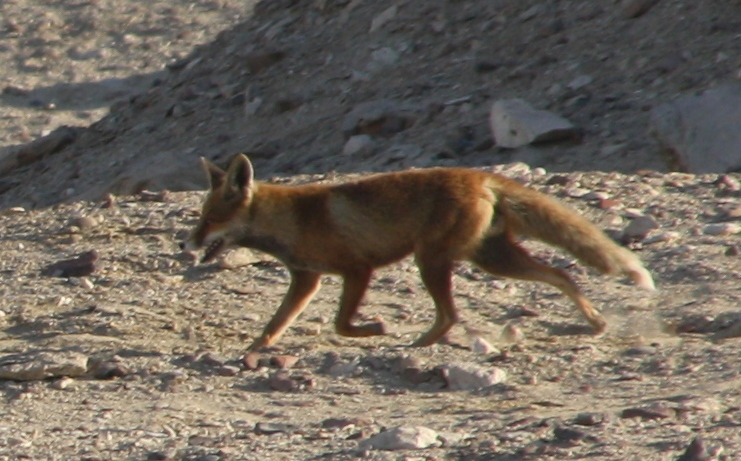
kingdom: Animalia
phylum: Chordata
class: Mammalia
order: Carnivora
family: Canidae
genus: Vulpes
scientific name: Vulpes vulpes
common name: Red fox
